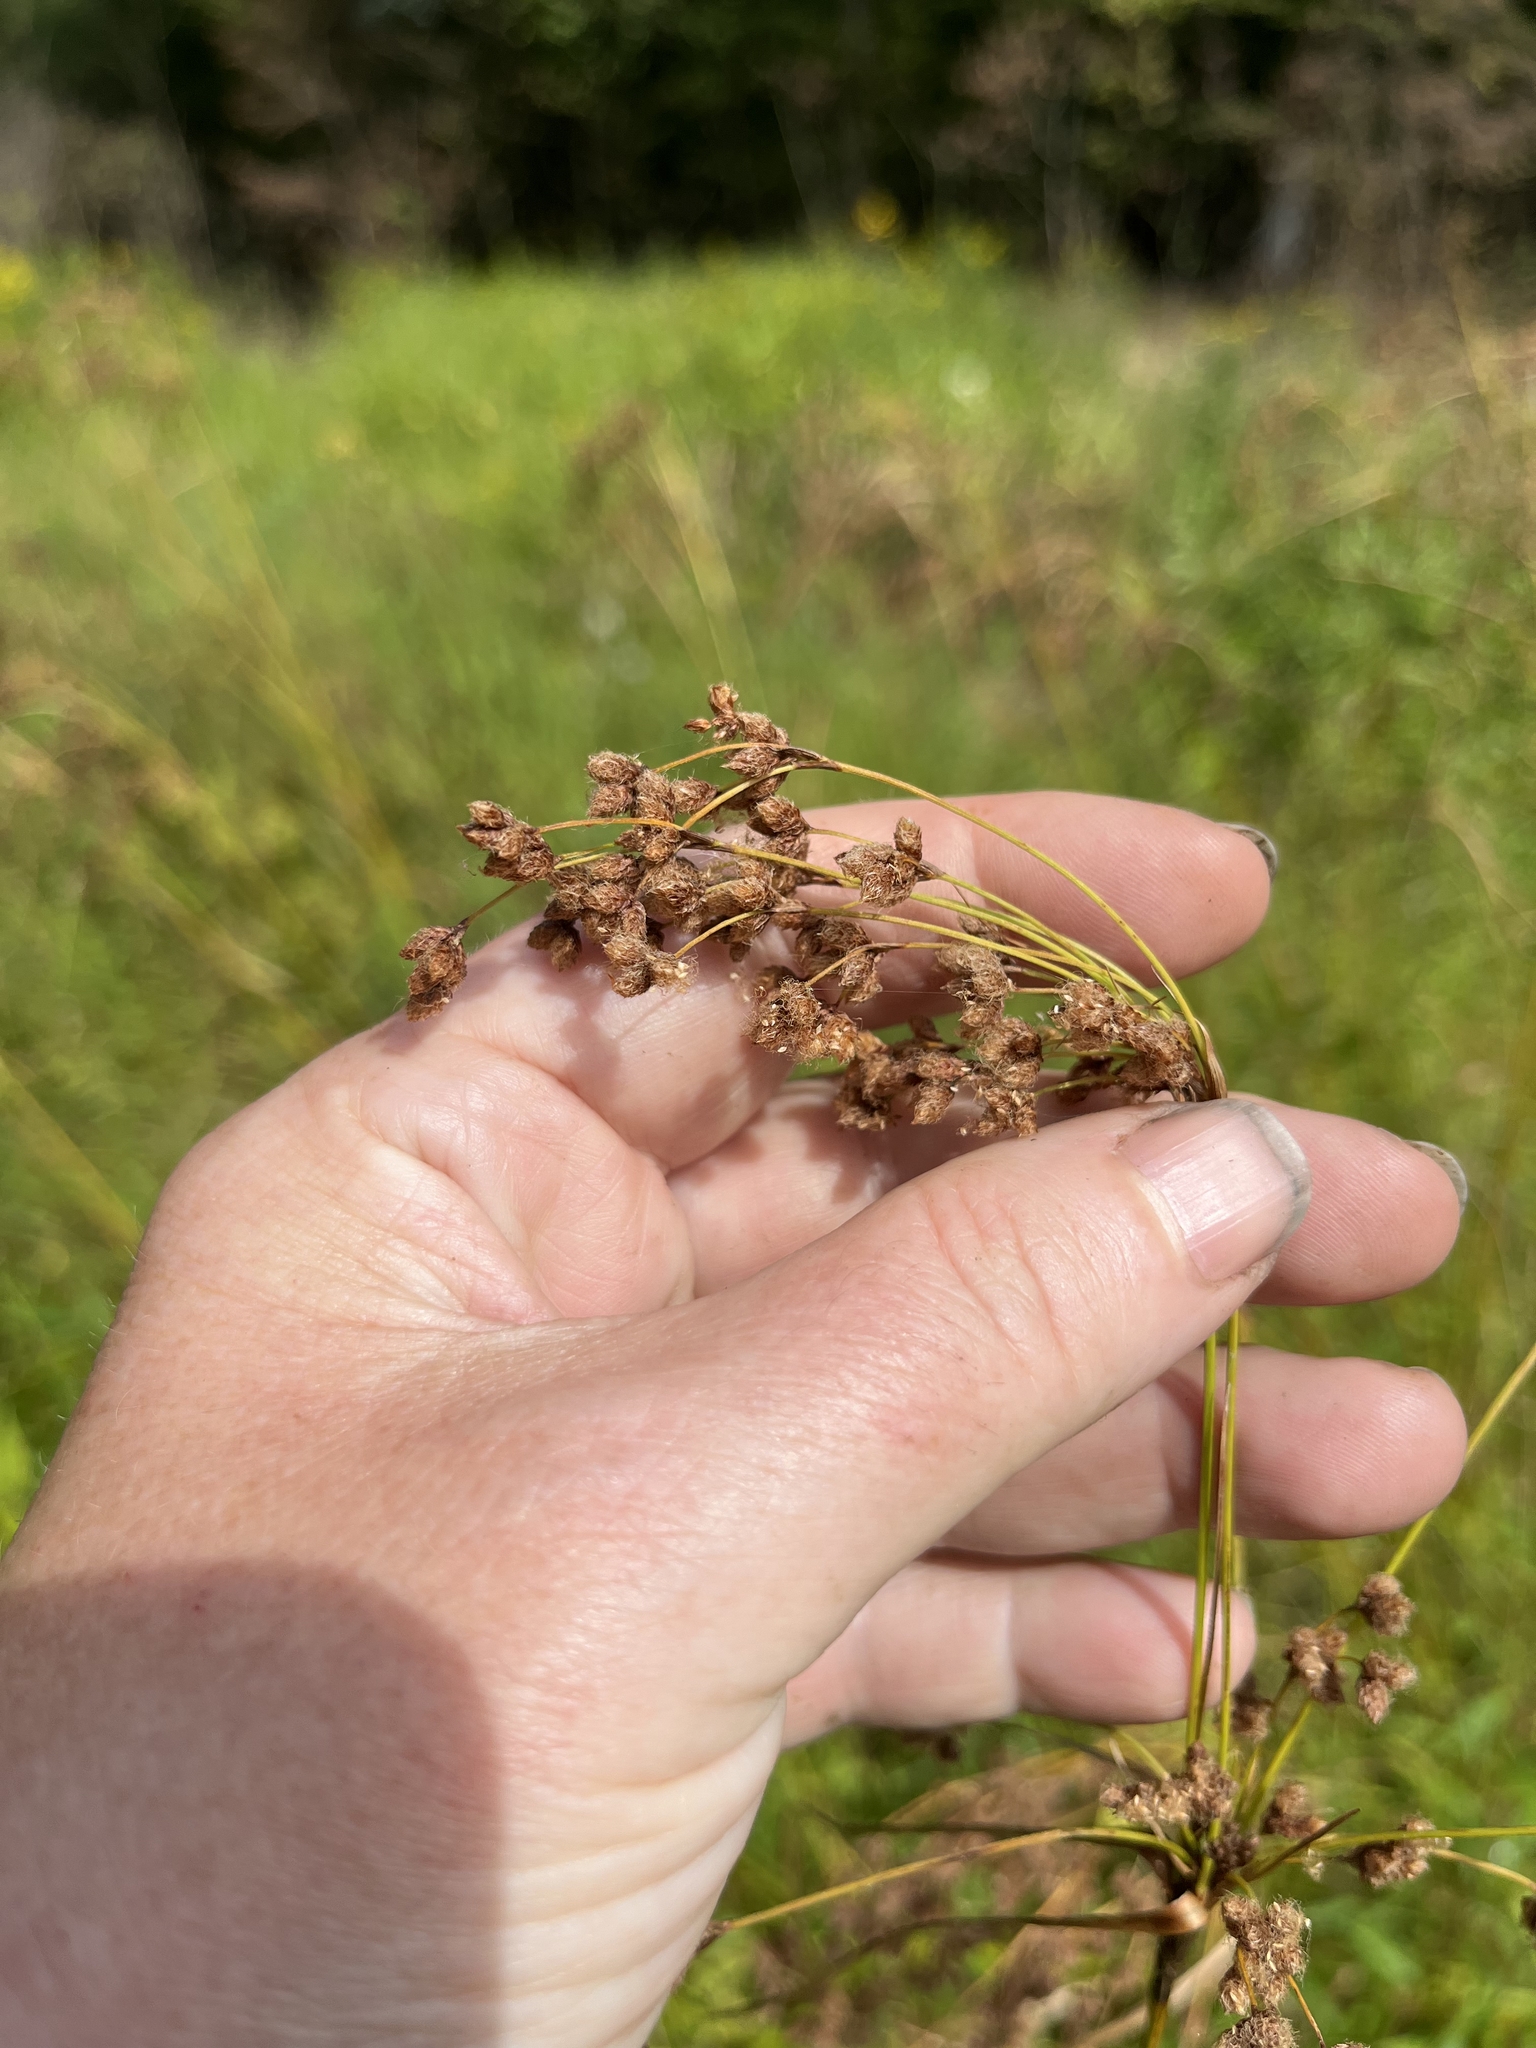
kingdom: Plantae
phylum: Tracheophyta
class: Liliopsida
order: Poales
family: Cyperaceae
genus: Scirpus
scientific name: Scirpus cyperinus
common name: Black-sheathed bulrush
